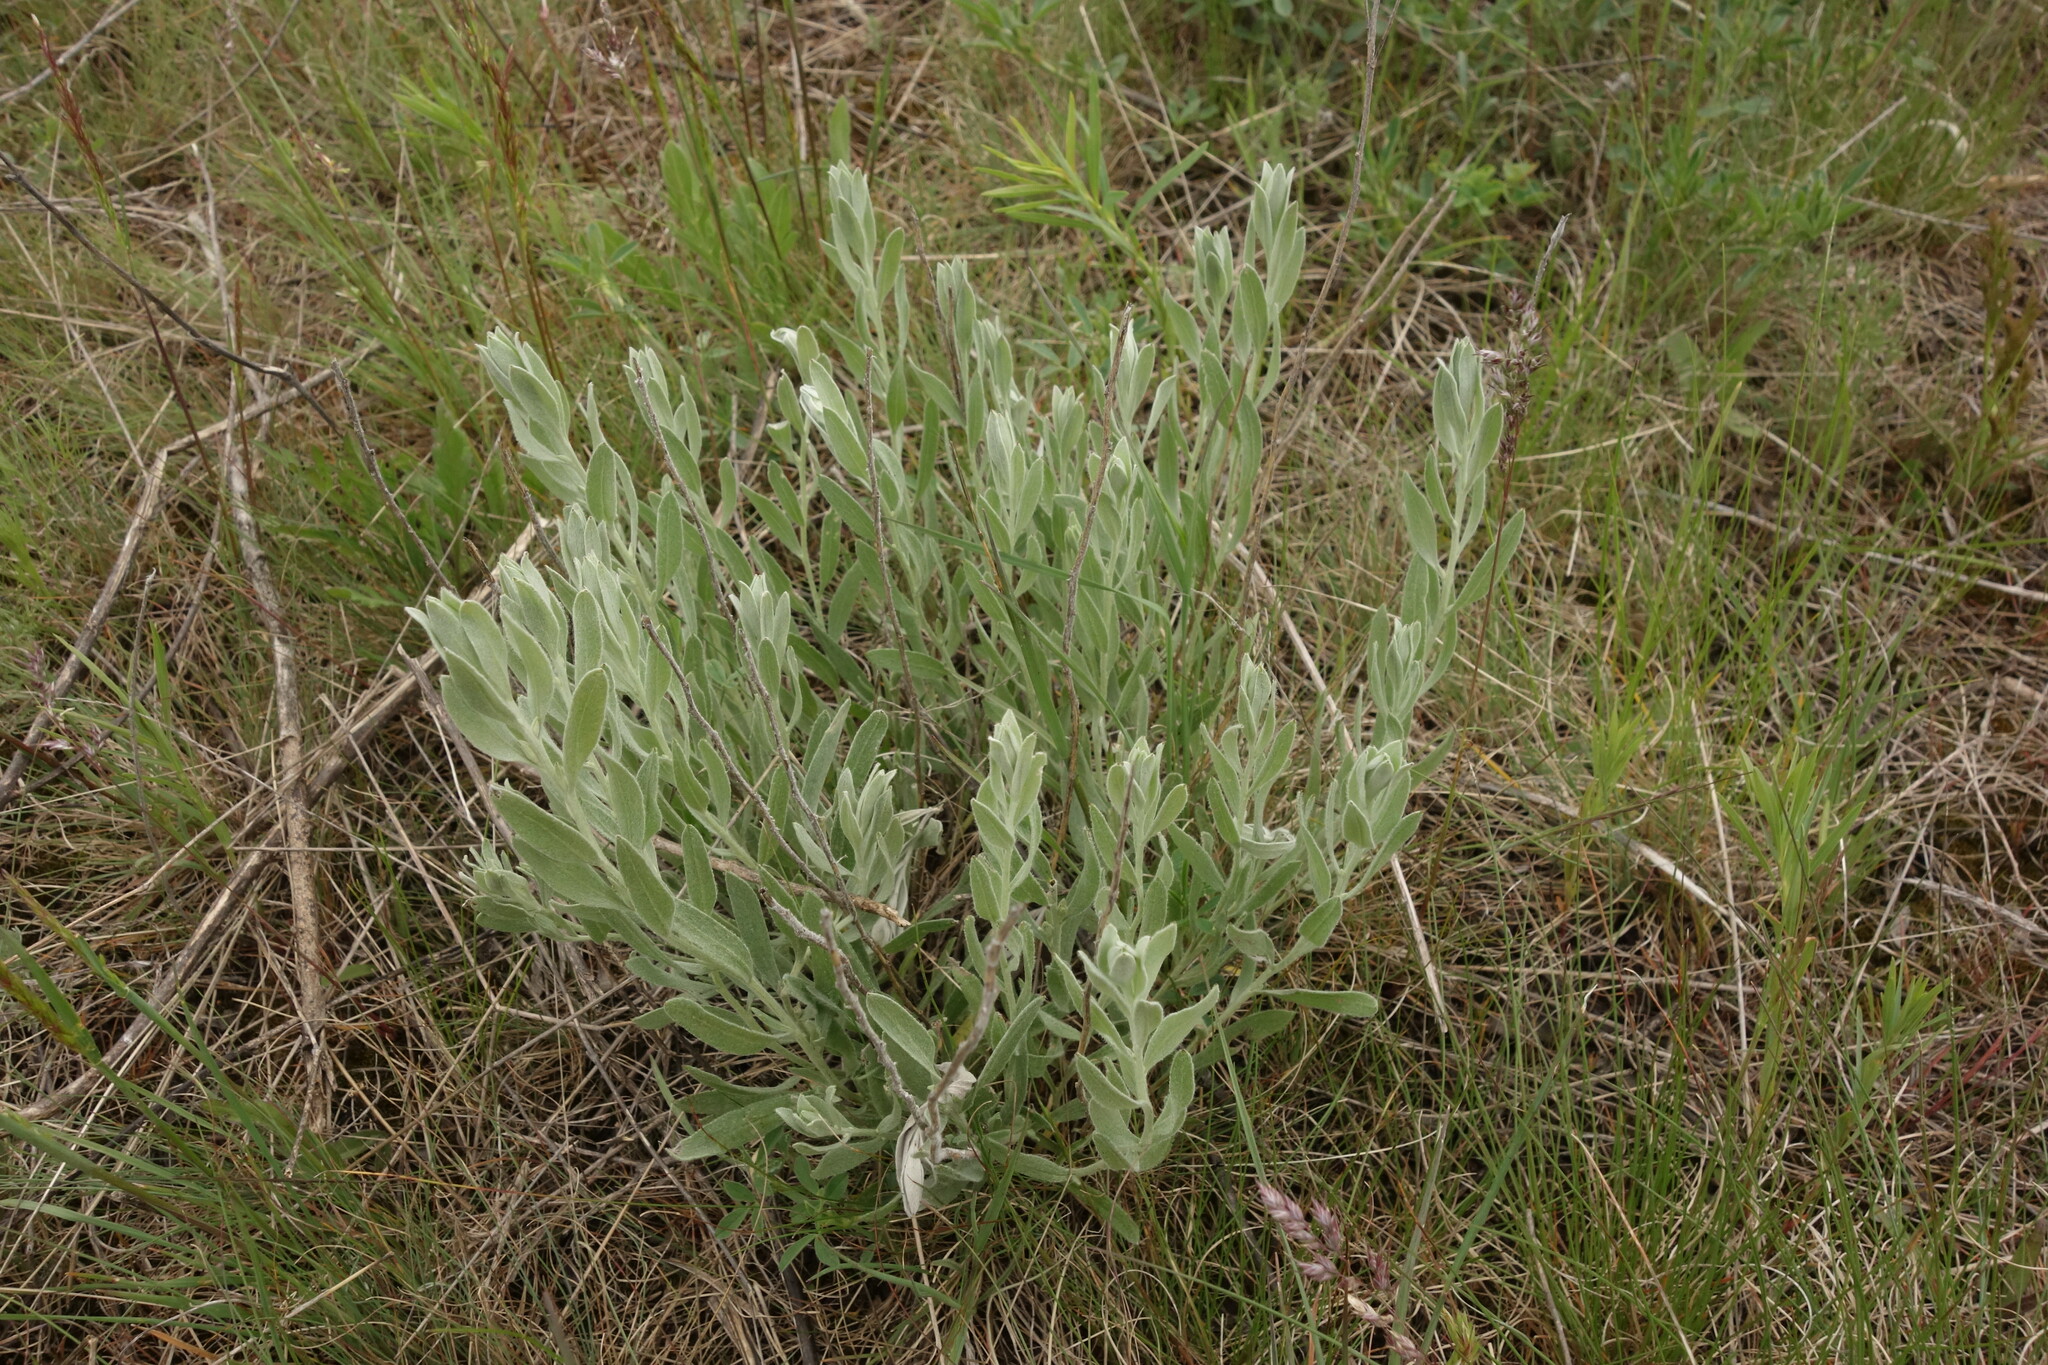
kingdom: Plantae
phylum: Tracheophyta
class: Magnoliopsida
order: Asterales
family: Asteraceae
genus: Galatella
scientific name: Galatella villosa
